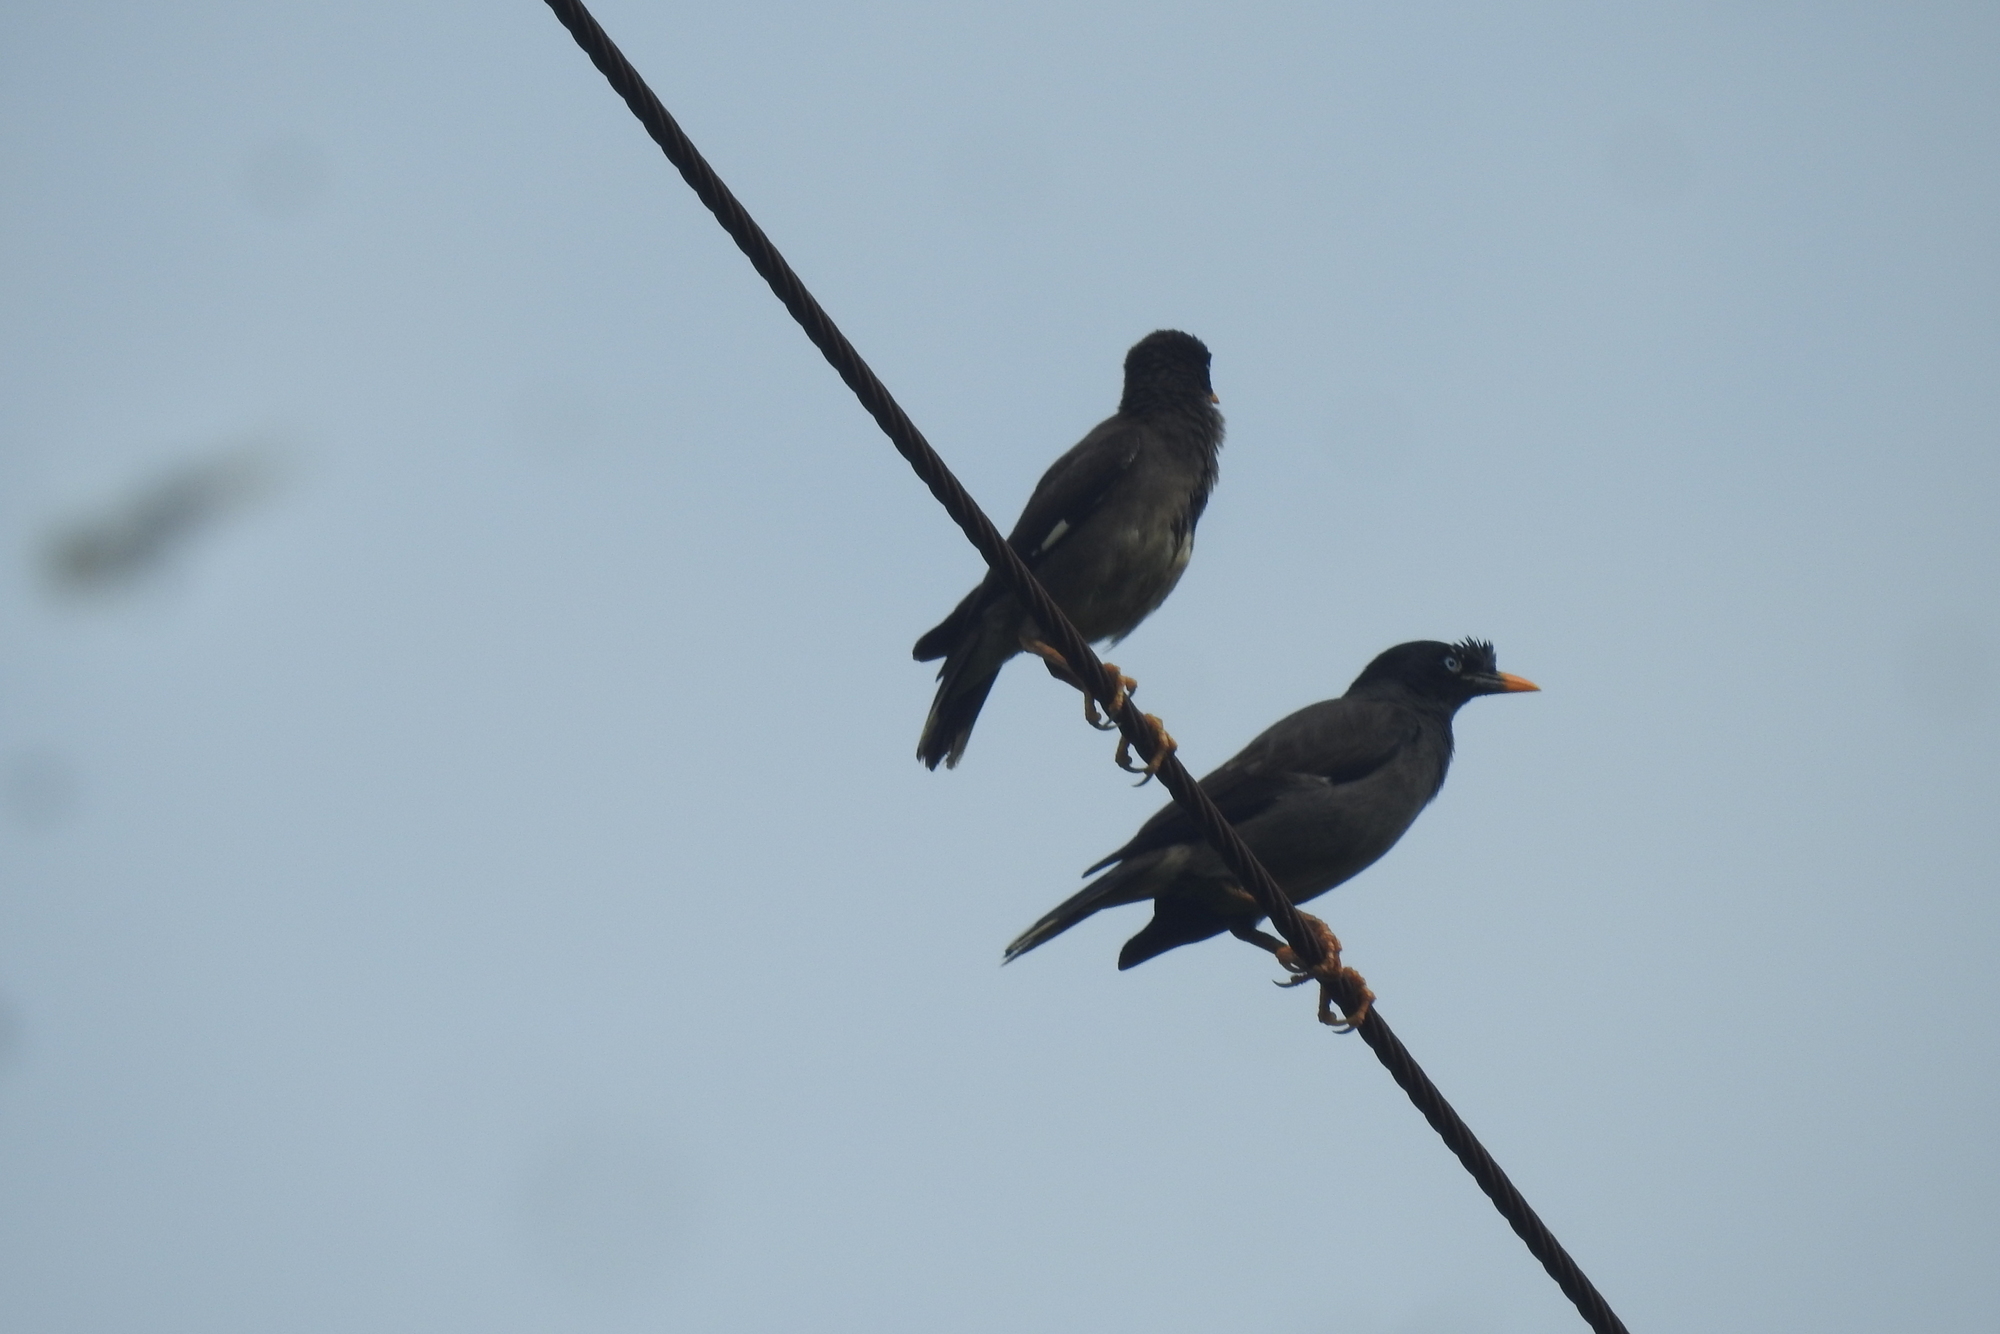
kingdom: Animalia
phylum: Chordata
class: Aves
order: Passeriformes
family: Sturnidae
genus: Acridotheres
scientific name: Acridotheres fuscus
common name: Jungle myna
